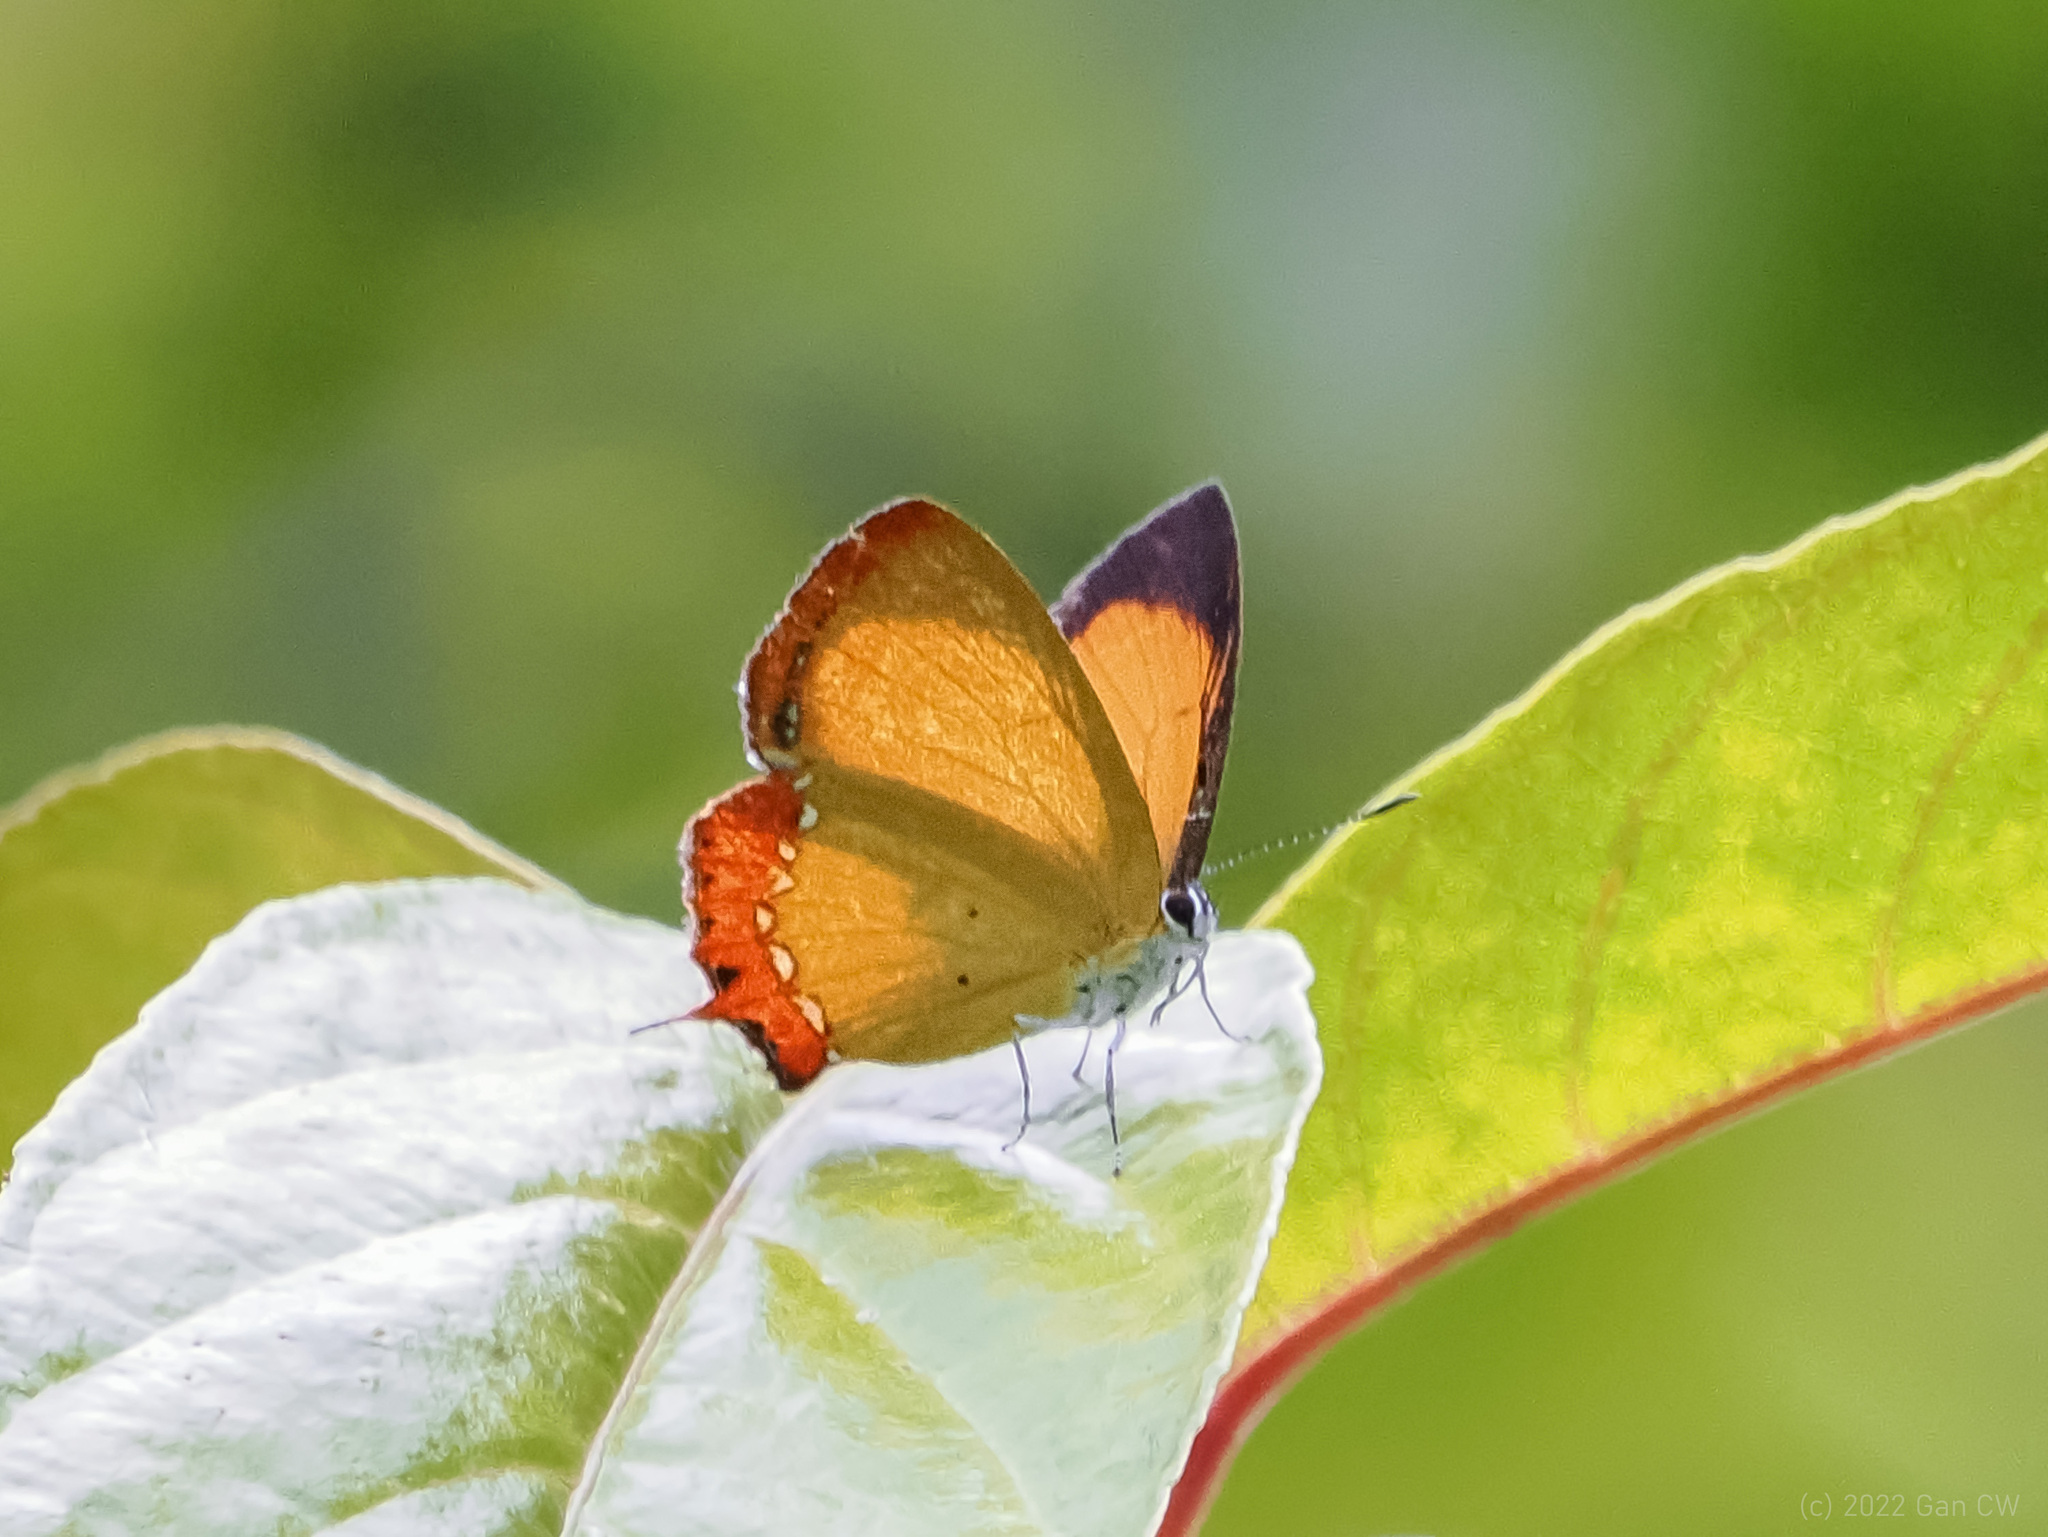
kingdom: Animalia
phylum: Arthropoda
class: Insecta
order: Lepidoptera
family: Lycaenidae
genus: Heliophorus
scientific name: Heliophorus ila
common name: Restricted purple sapphire
